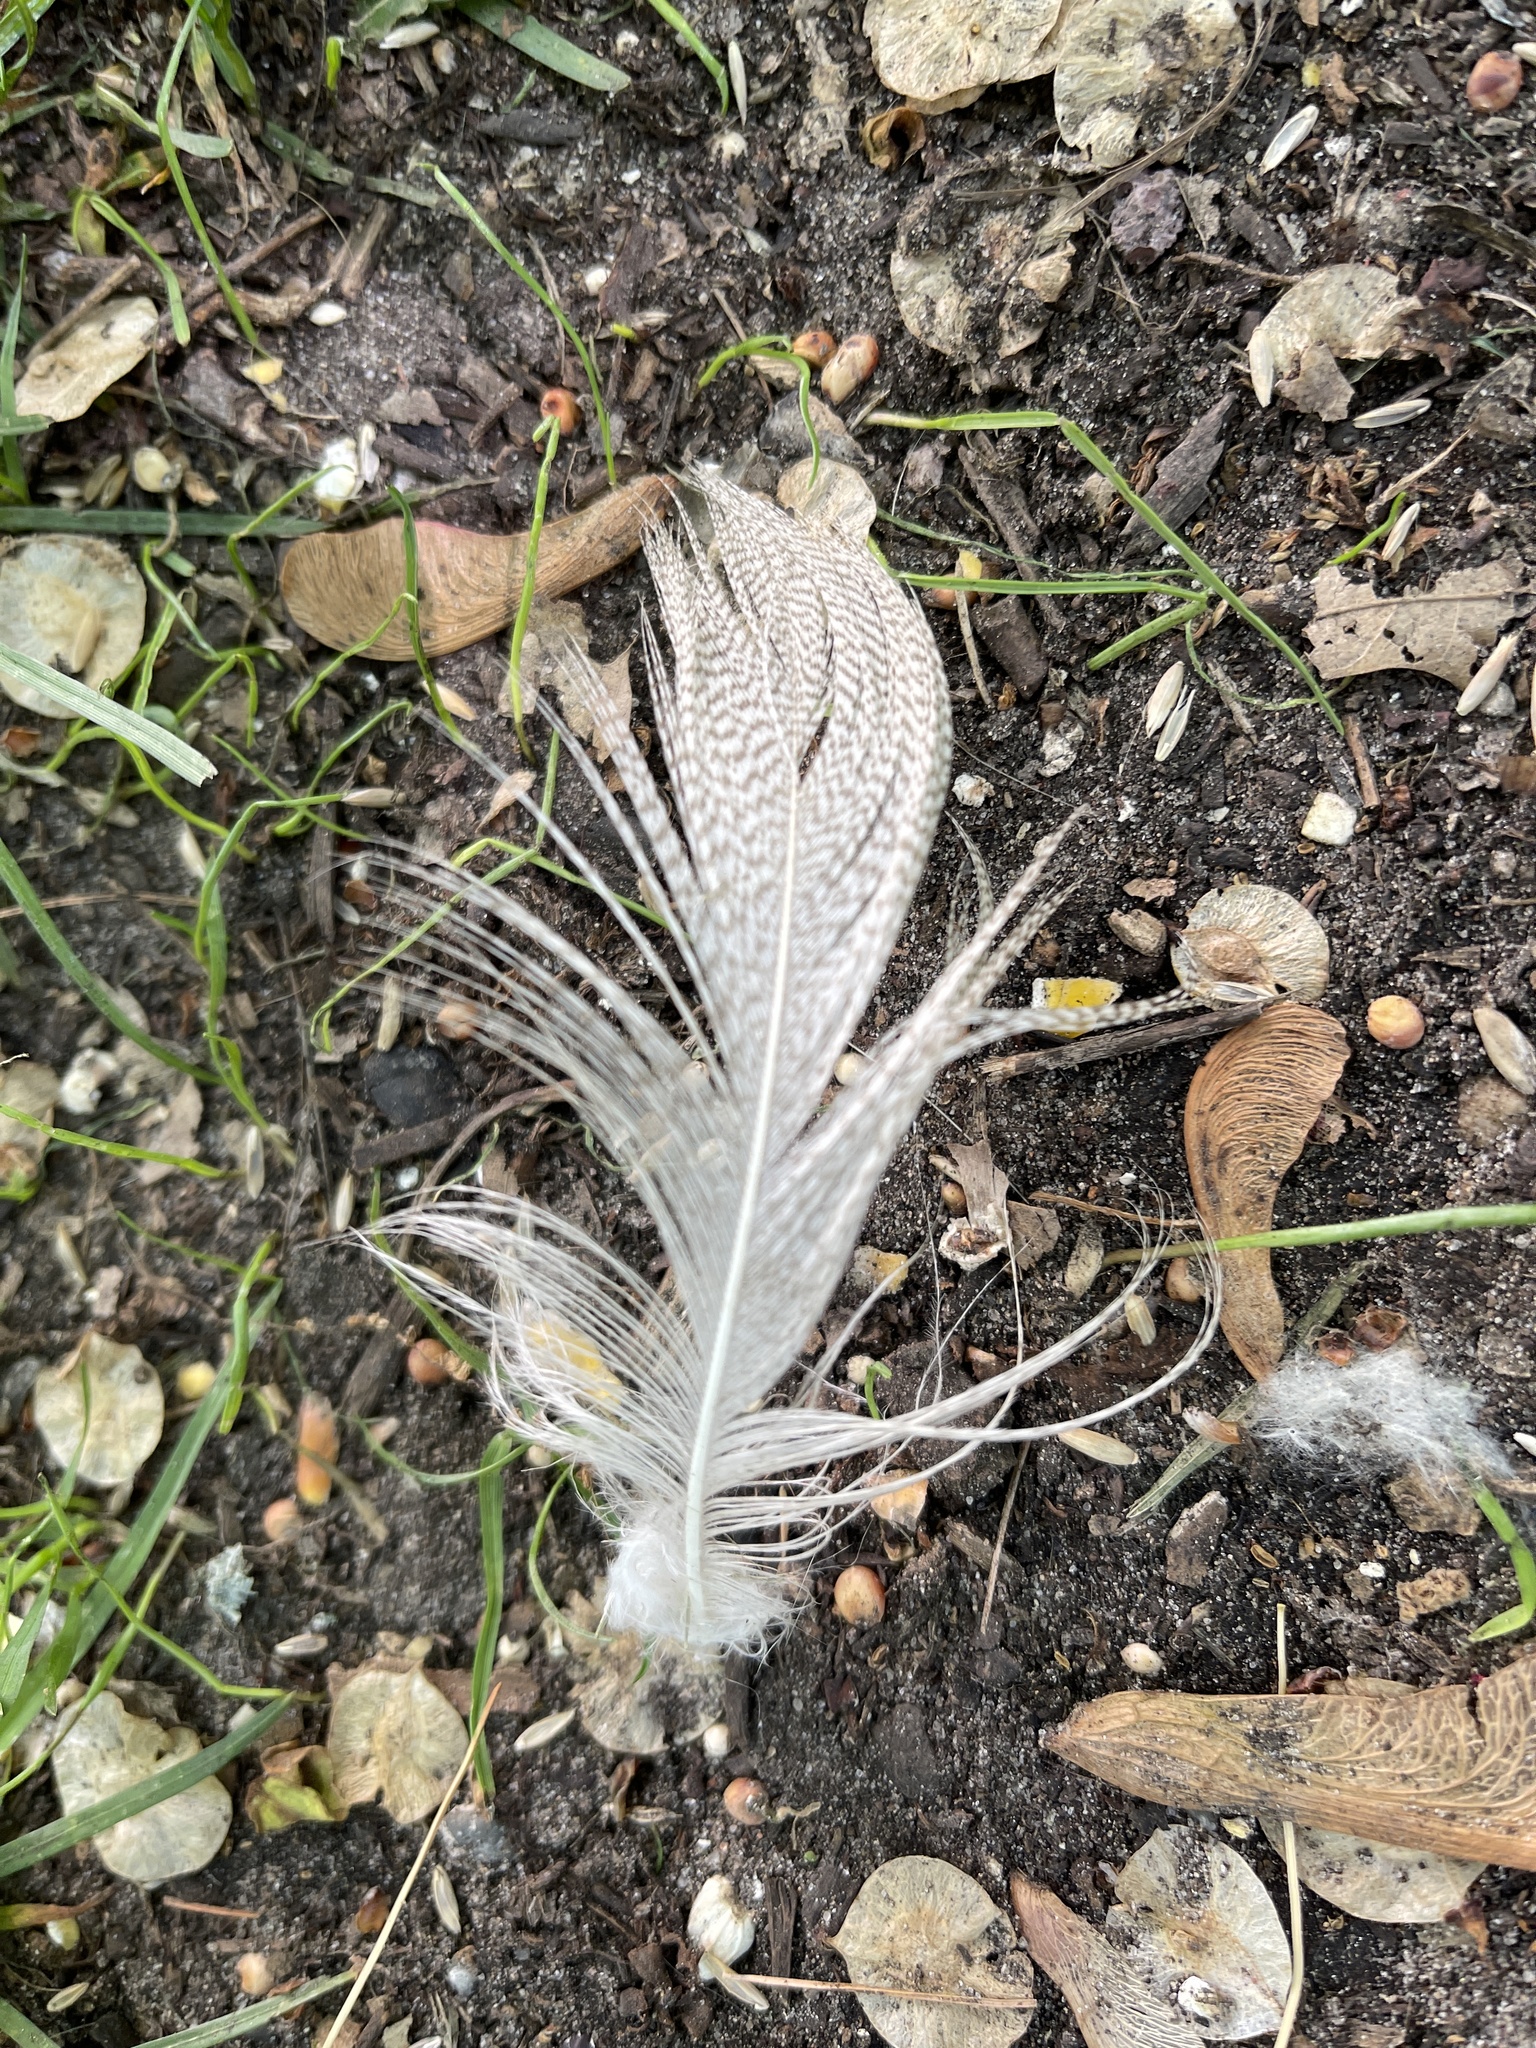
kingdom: Animalia
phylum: Chordata
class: Aves
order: Anseriformes
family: Anatidae
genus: Anas
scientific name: Anas platyrhynchos
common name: Mallard
